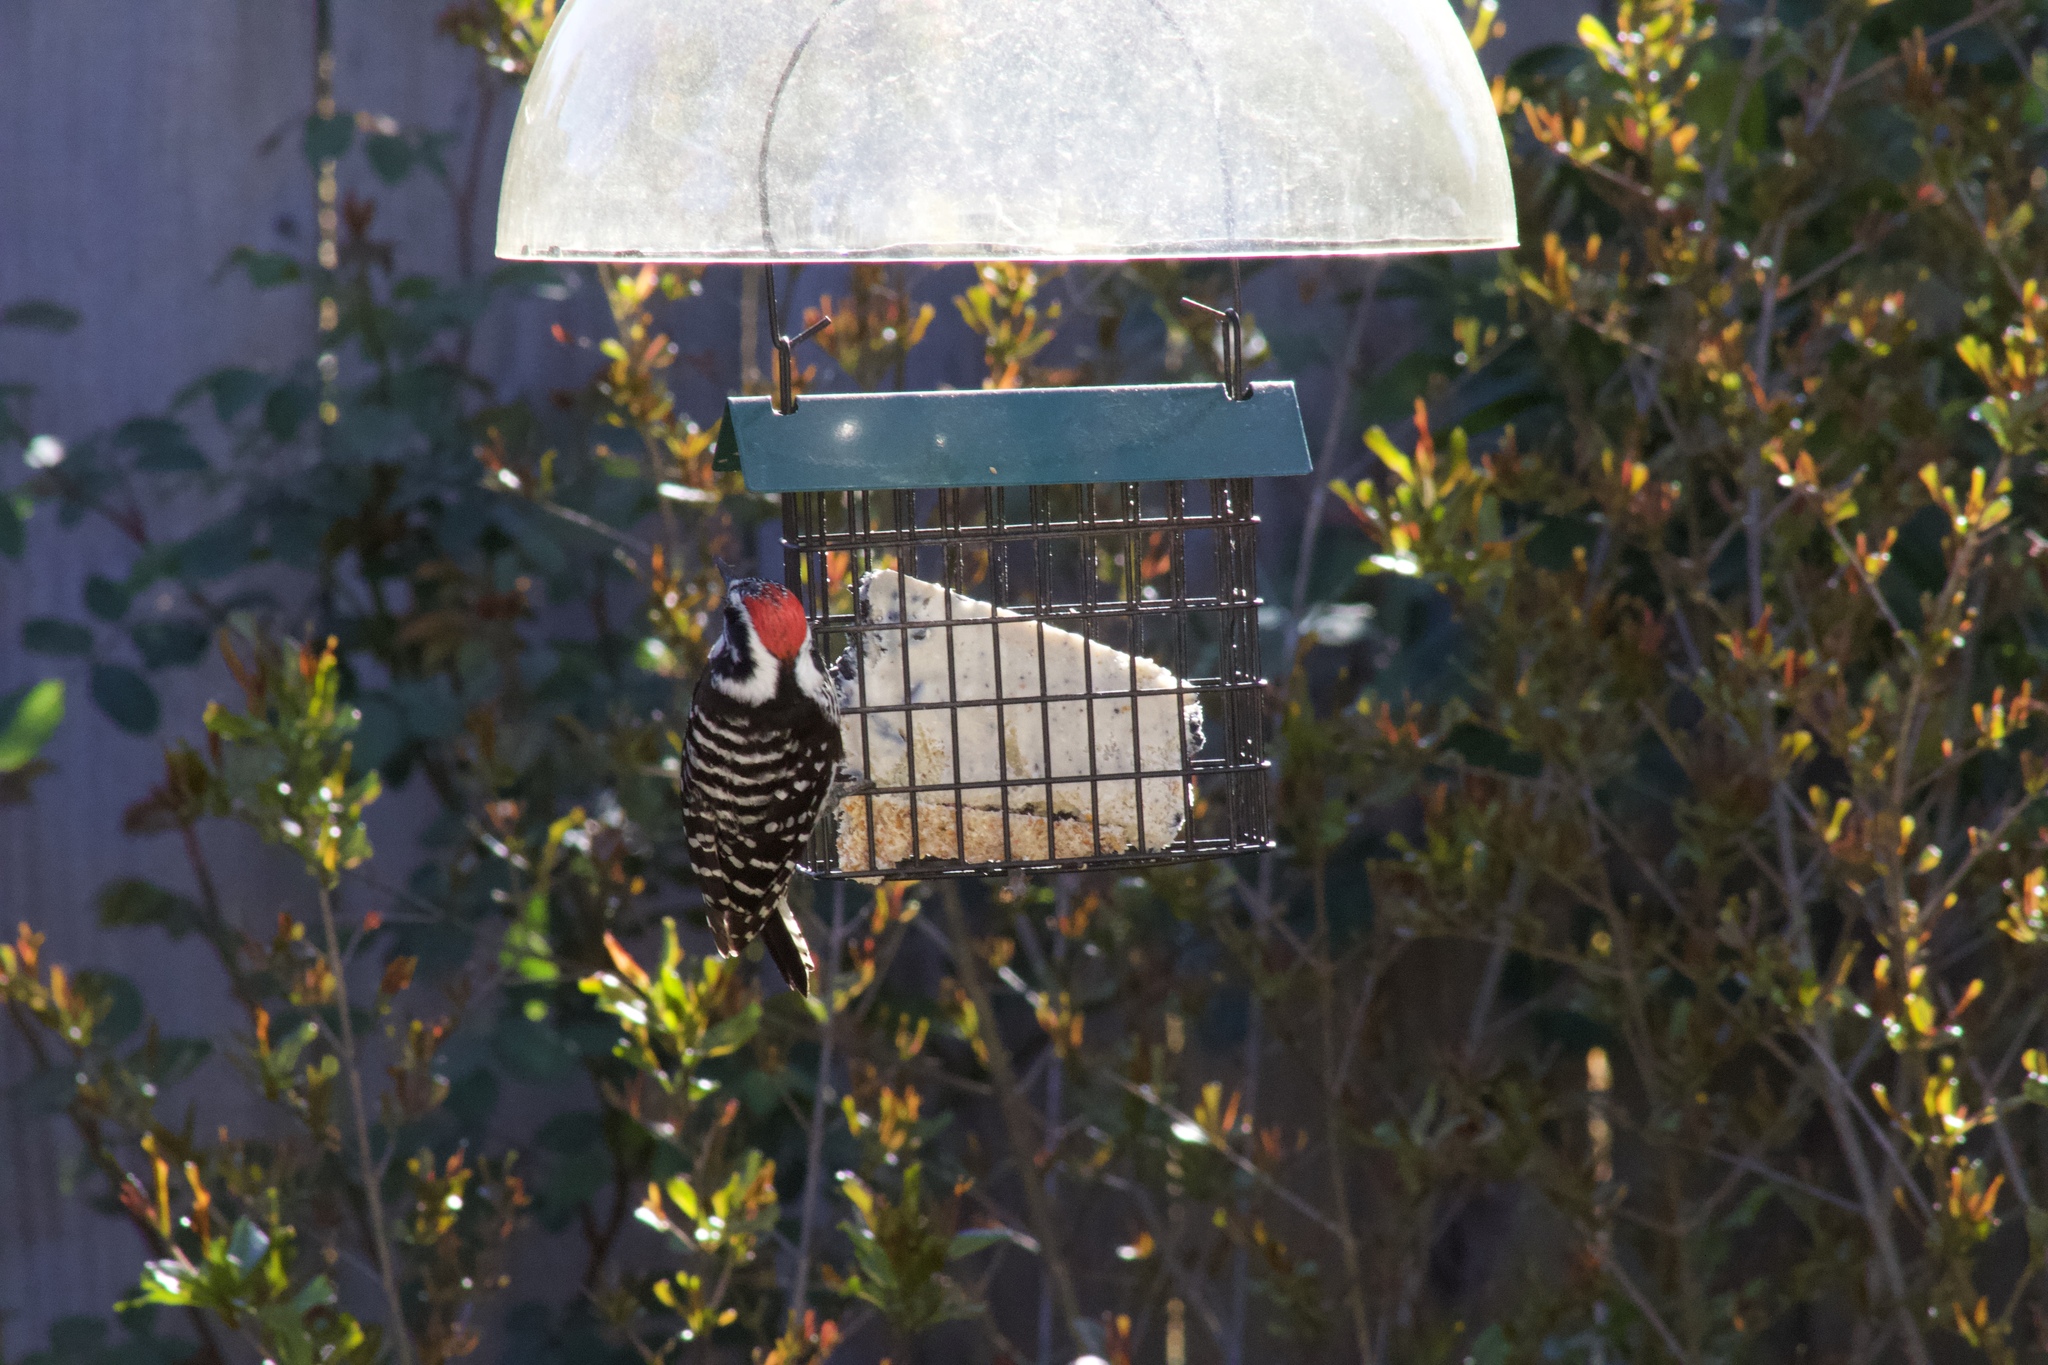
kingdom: Animalia
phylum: Chordata
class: Aves
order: Piciformes
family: Picidae
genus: Dryobates
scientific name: Dryobates nuttallii
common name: Nuttall's woodpecker
